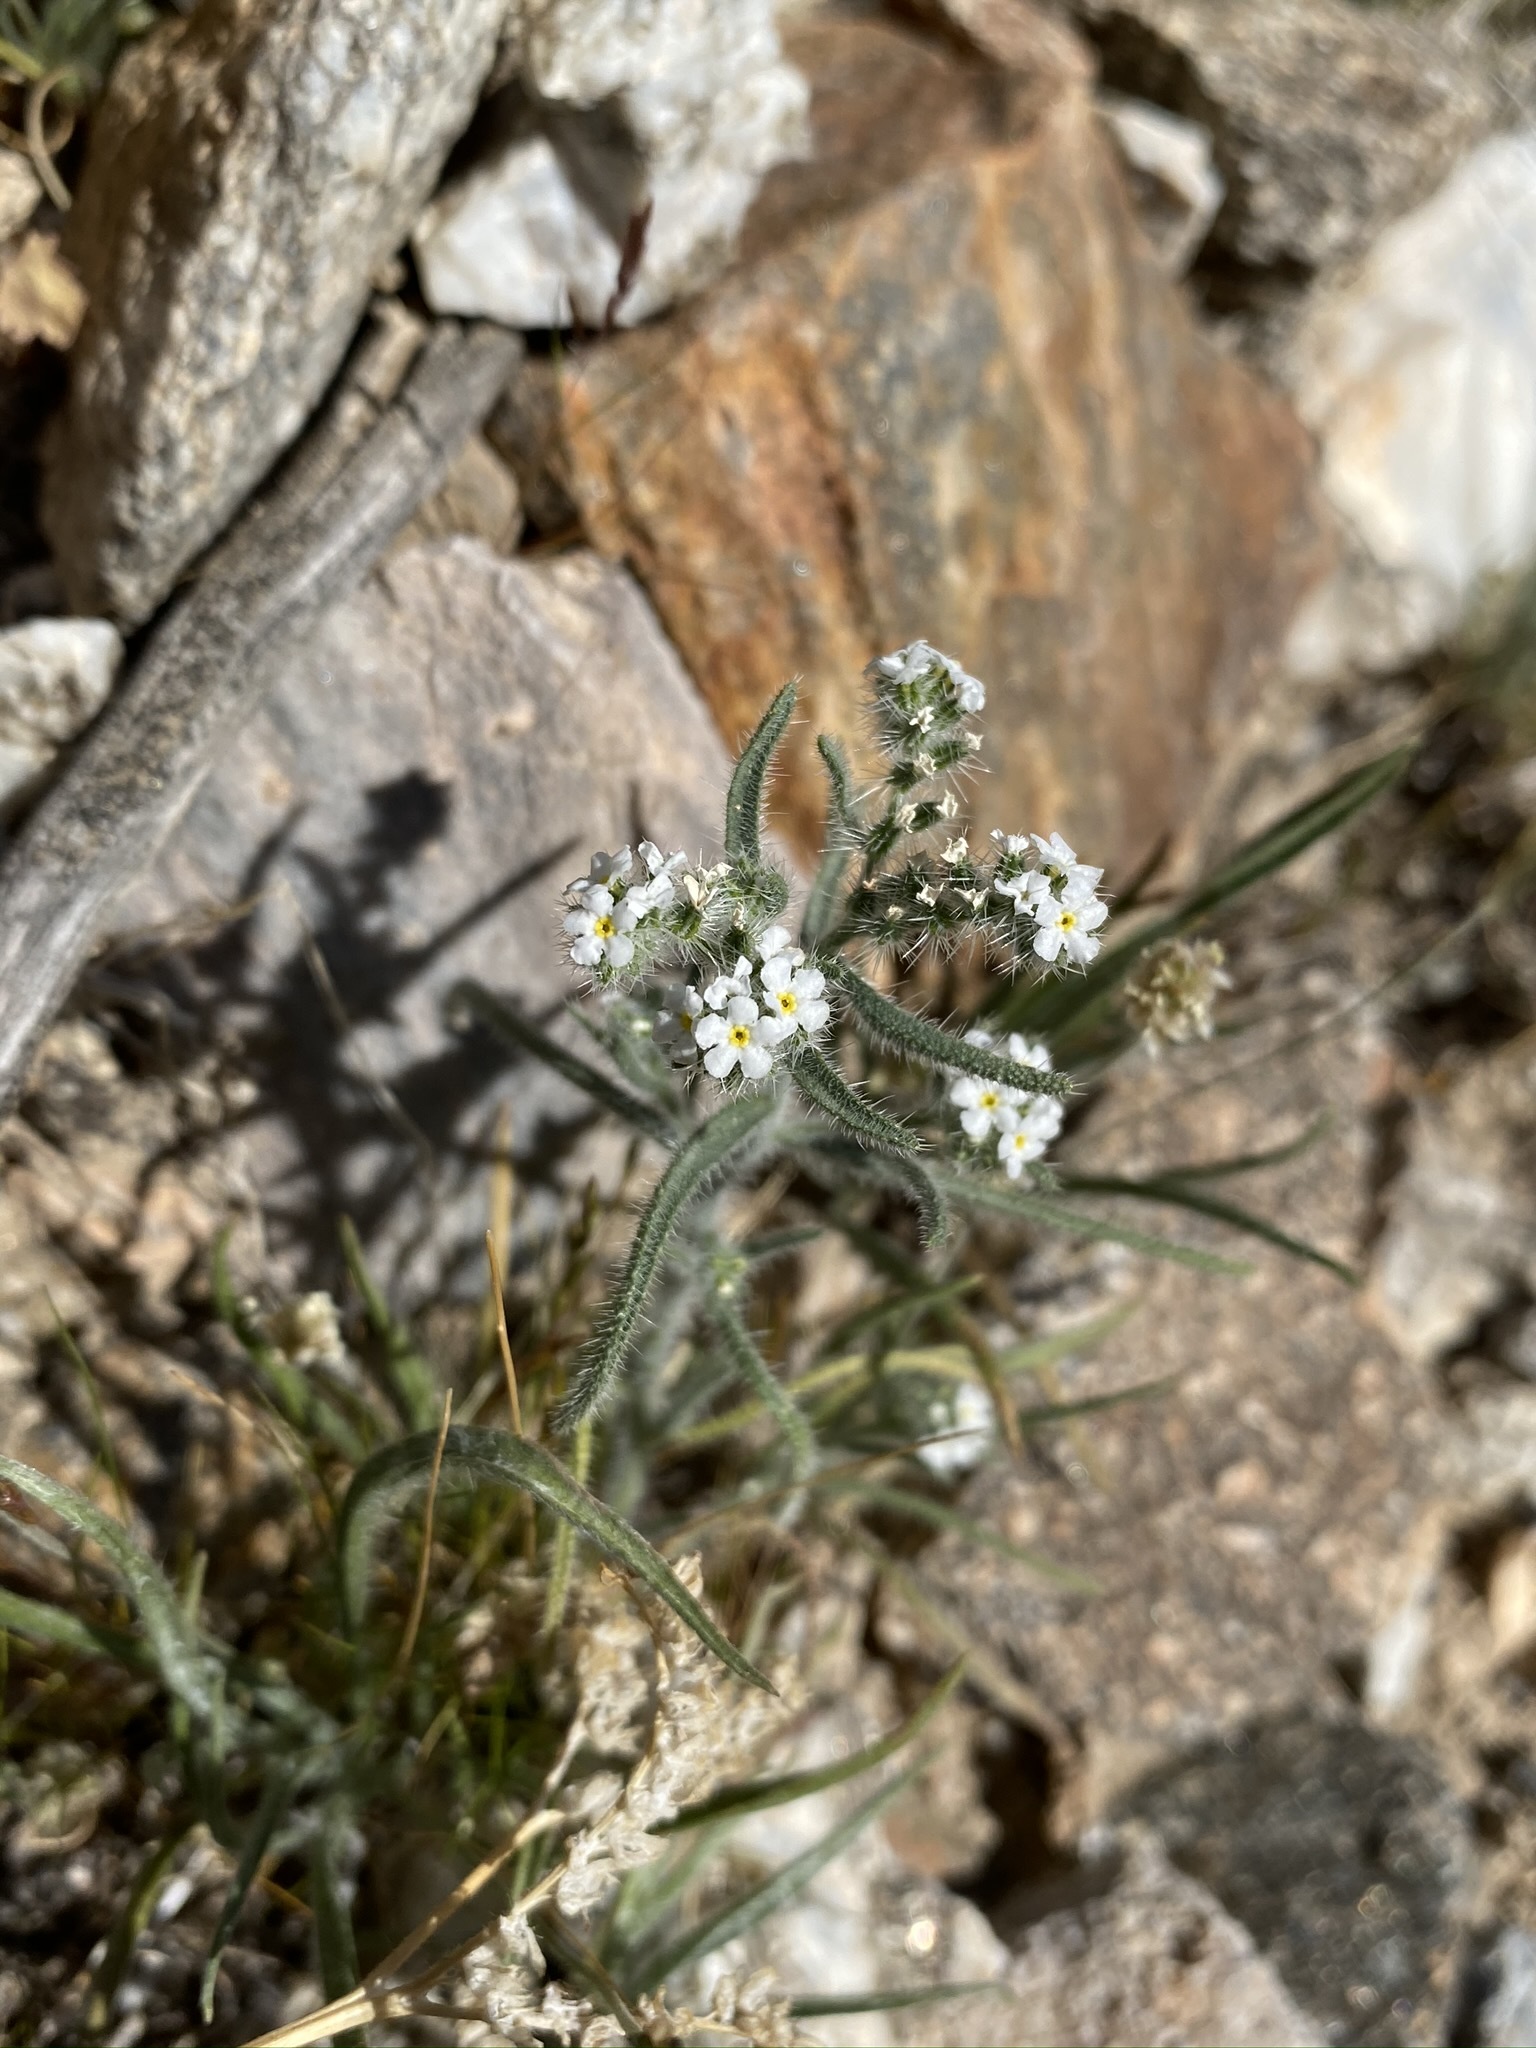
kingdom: Plantae
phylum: Tracheophyta
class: Magnoliopsida
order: Boraginales
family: Boraginaceae
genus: Johnstonella
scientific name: Johnstonella angustifolia
